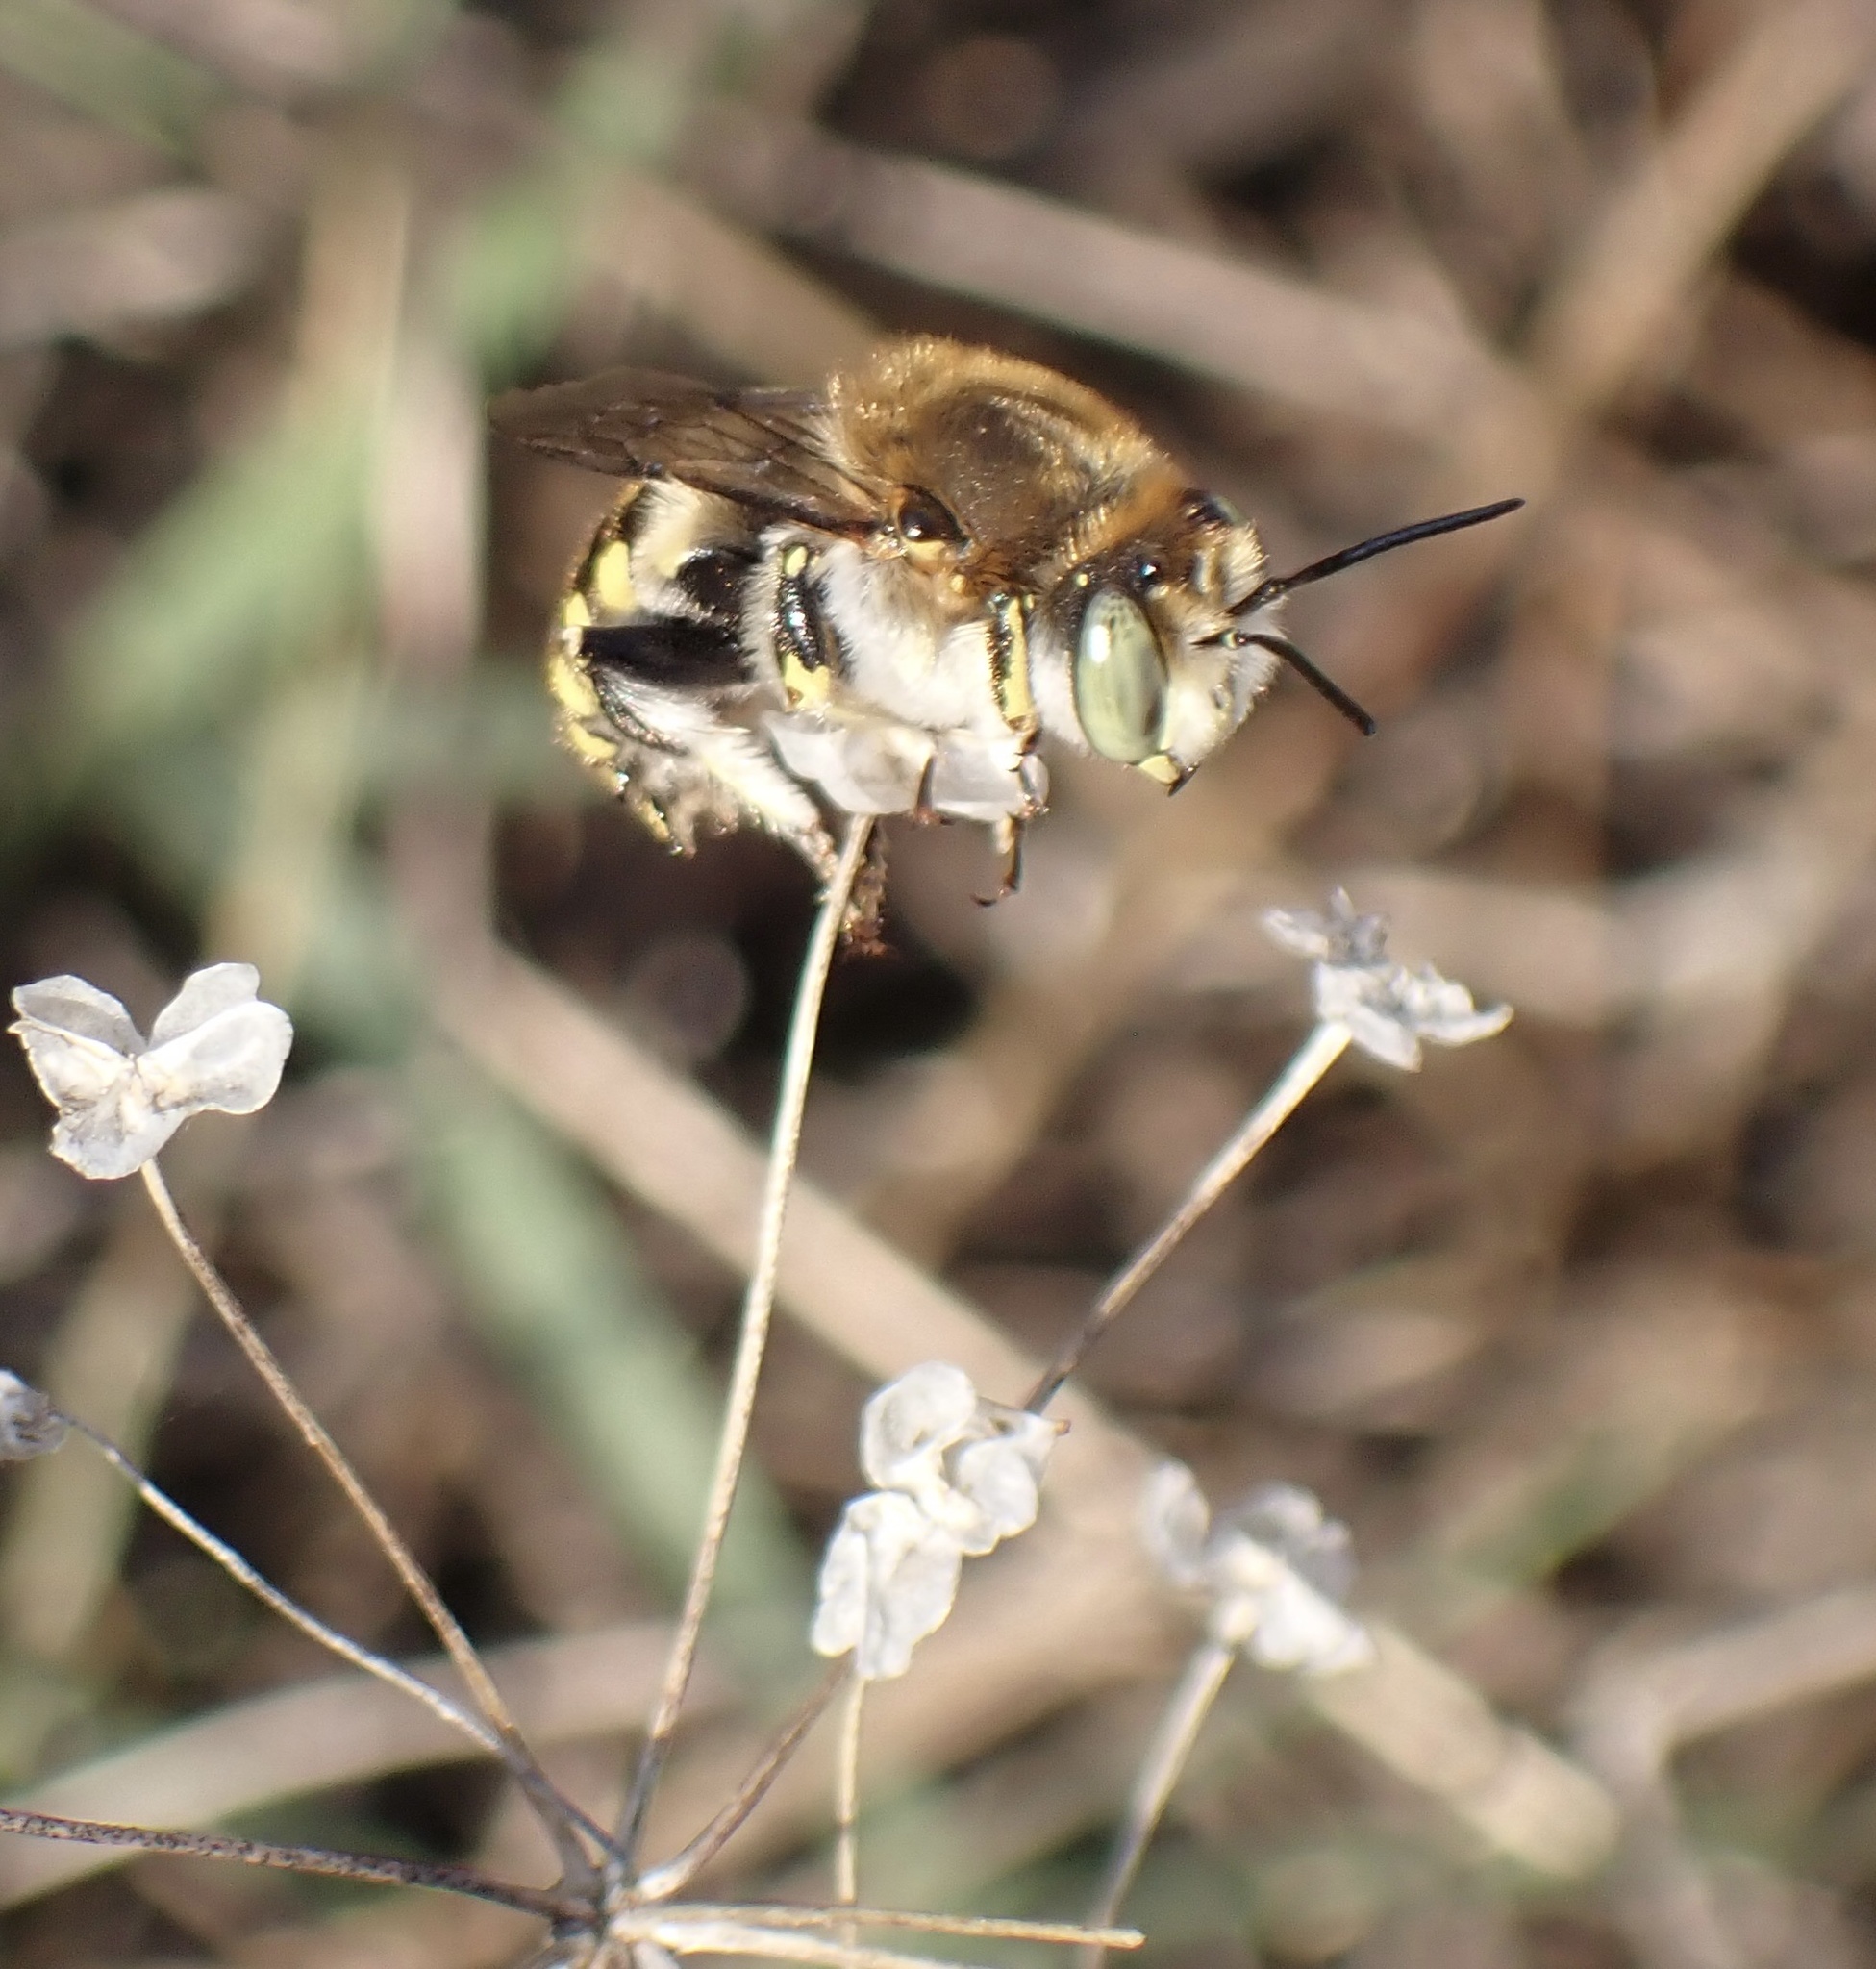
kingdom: Animalia
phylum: Arthropoda
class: Insecta
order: Hymenoptera
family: Megachilidae
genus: Anthidium
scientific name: Anthidium cingulatum
